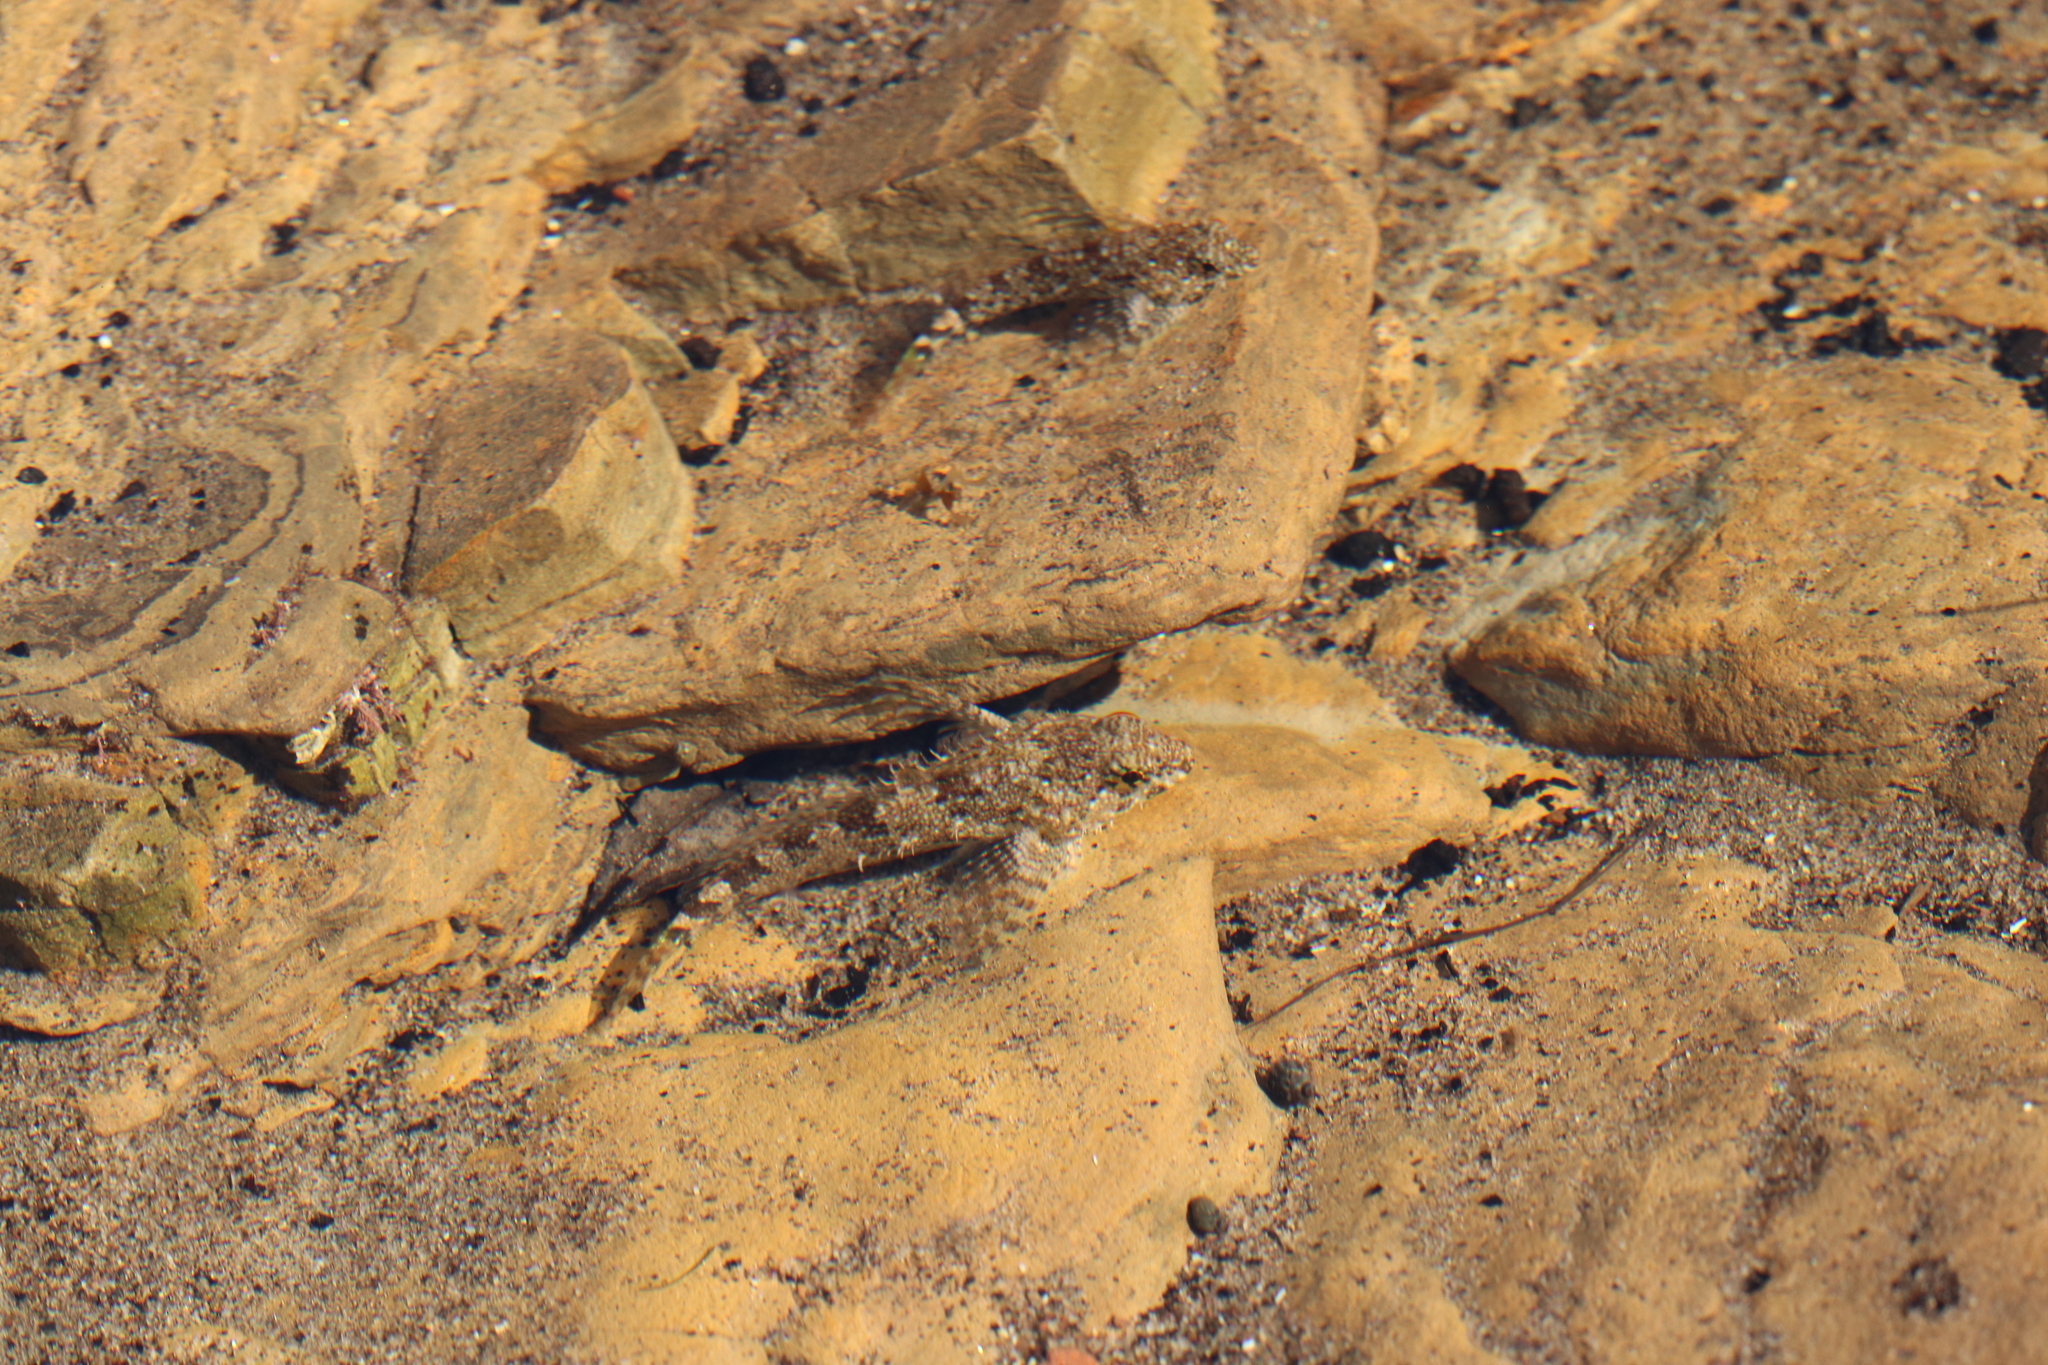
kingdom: Animalia
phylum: Chordata
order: Scorpaeniformes
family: Cottidae
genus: Clinocottus
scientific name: Clinocottus analis
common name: Woolly sculpin
